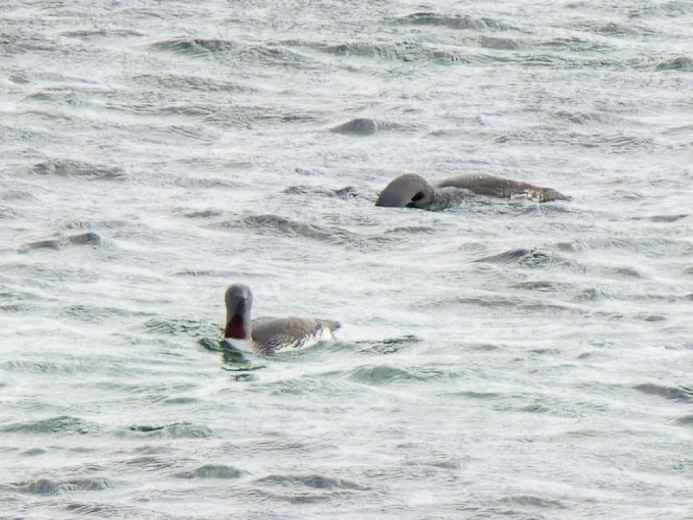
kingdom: Animalia
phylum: Chordata
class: Aves
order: Gaviiformes
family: Gaviidae
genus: Gavia
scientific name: Gavia stellata
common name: Red-throated loon
